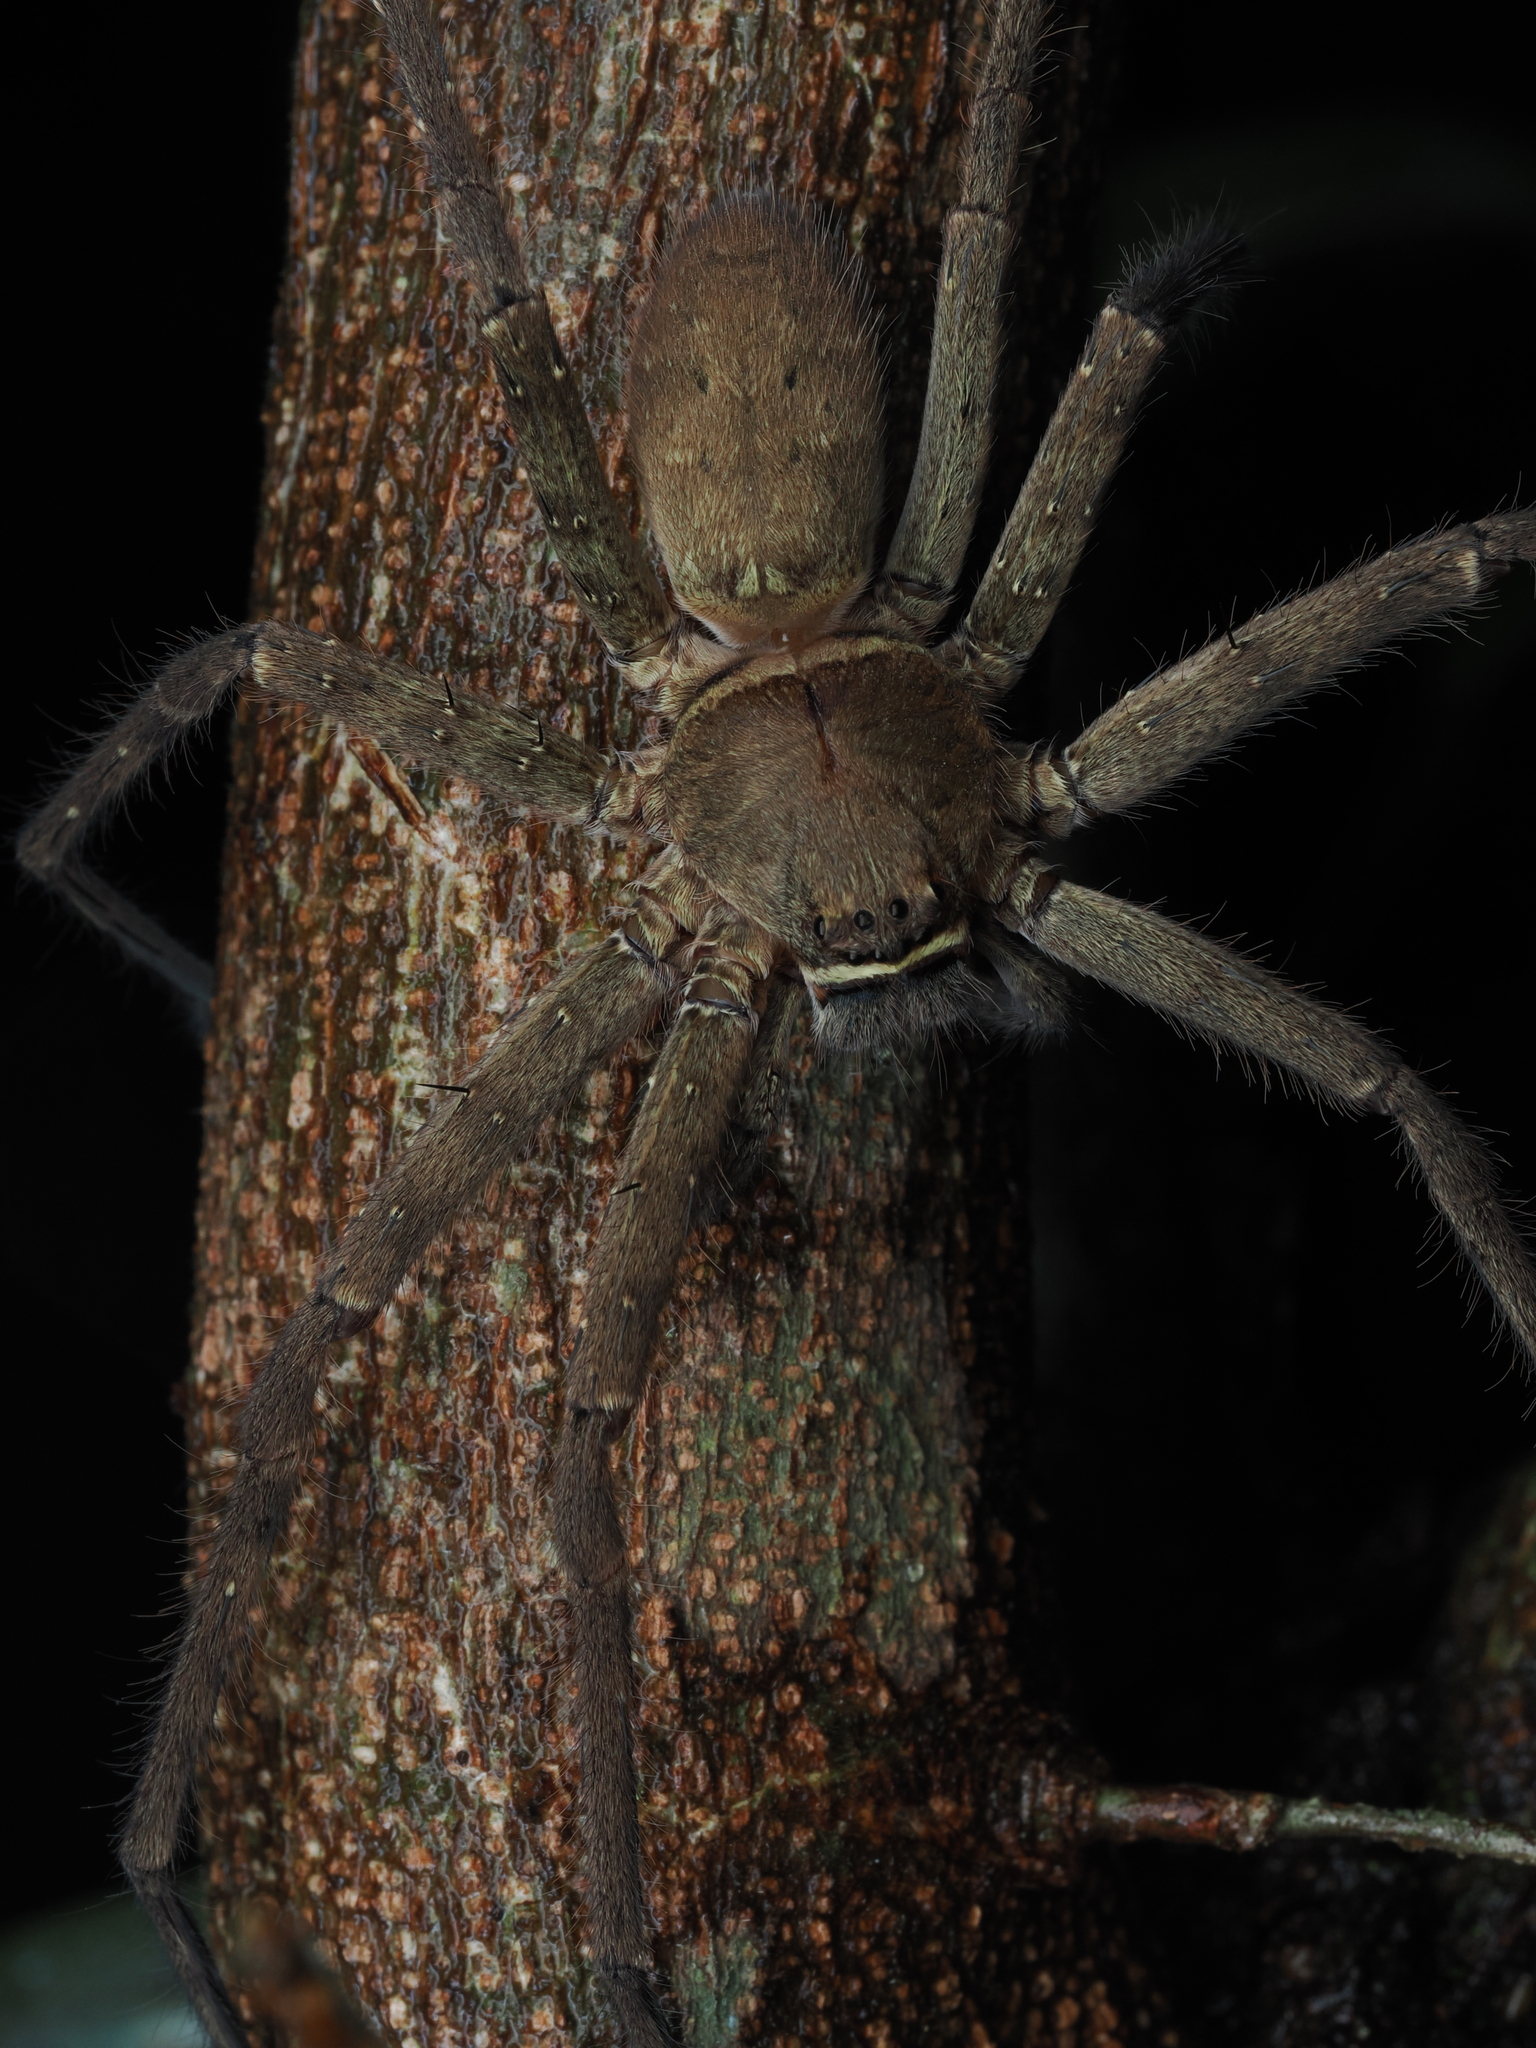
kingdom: Animalia
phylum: Arthropoda
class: Arachnida
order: Araneae
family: Sparassidae
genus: Heteropoda
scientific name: Heteropoda venatoria
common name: Huntsman spider
